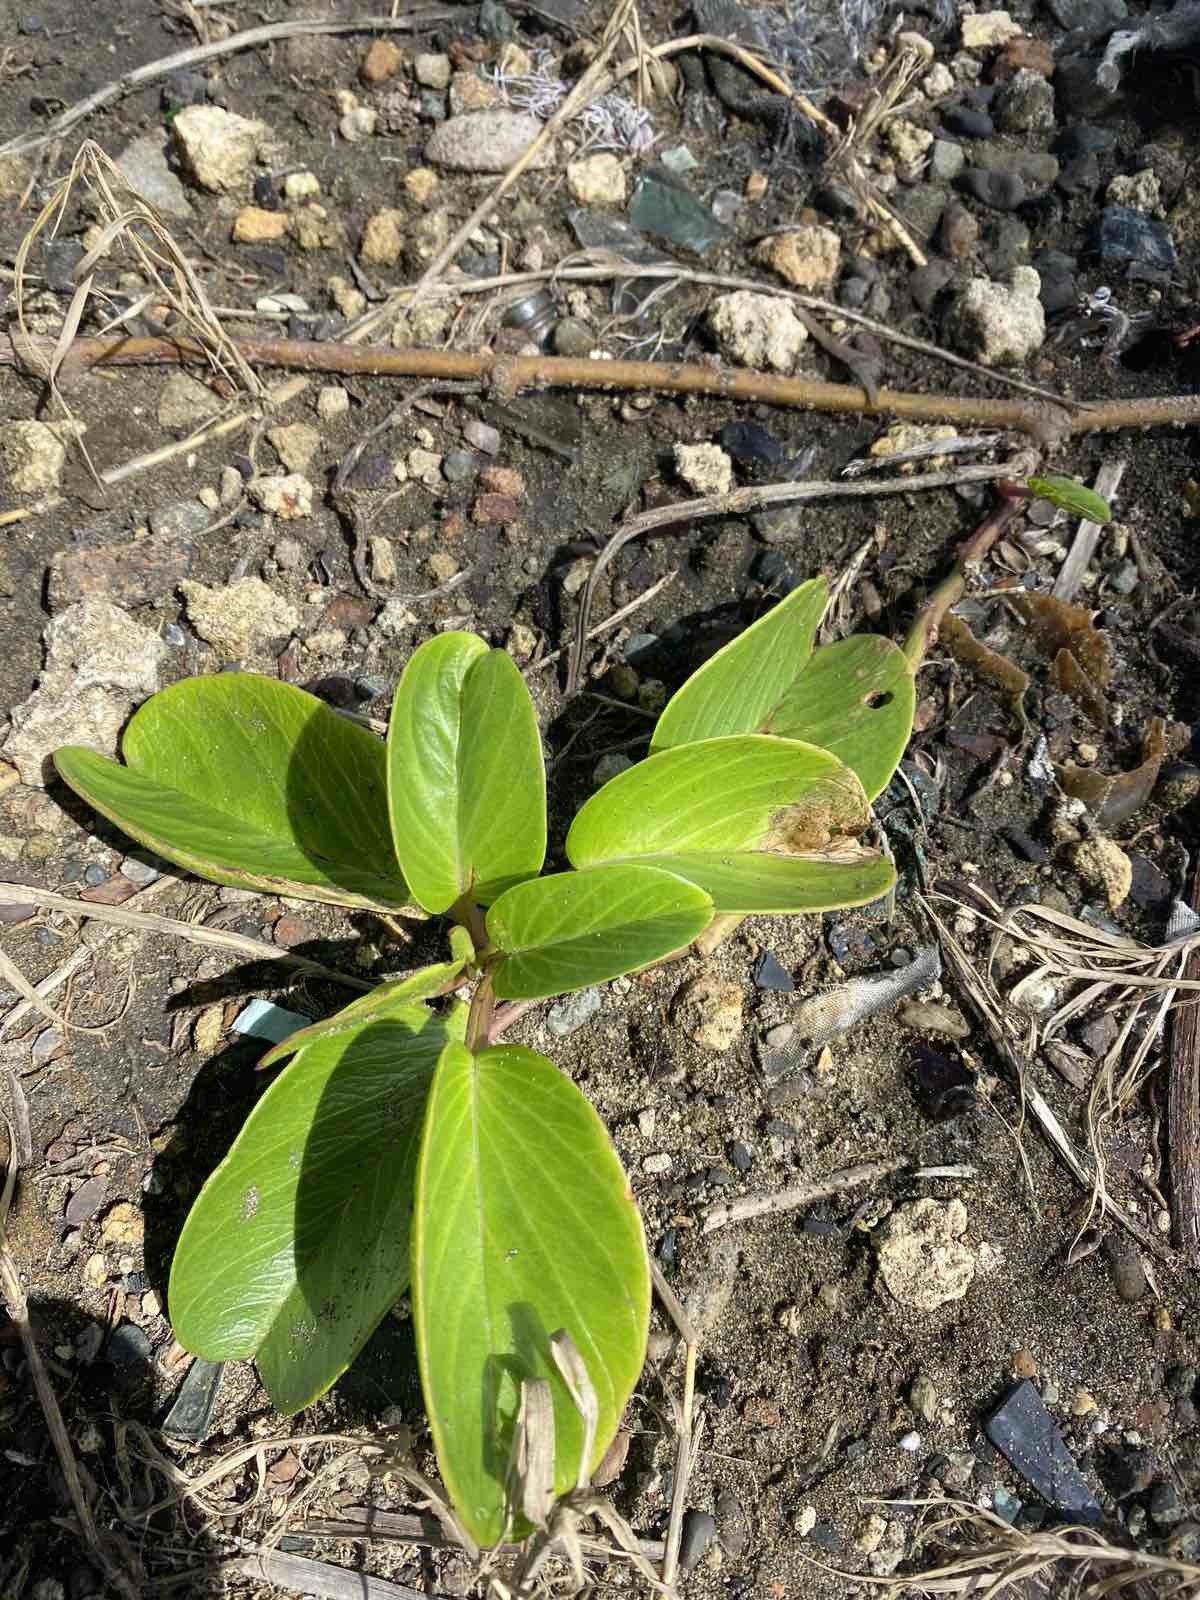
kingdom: Plantae
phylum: Tracheophyta
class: Magnoliopsida
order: Solanales
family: Convolvulaceae
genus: Ipomoea
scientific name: Ipomoea pes-caprae
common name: Beach morning glory
